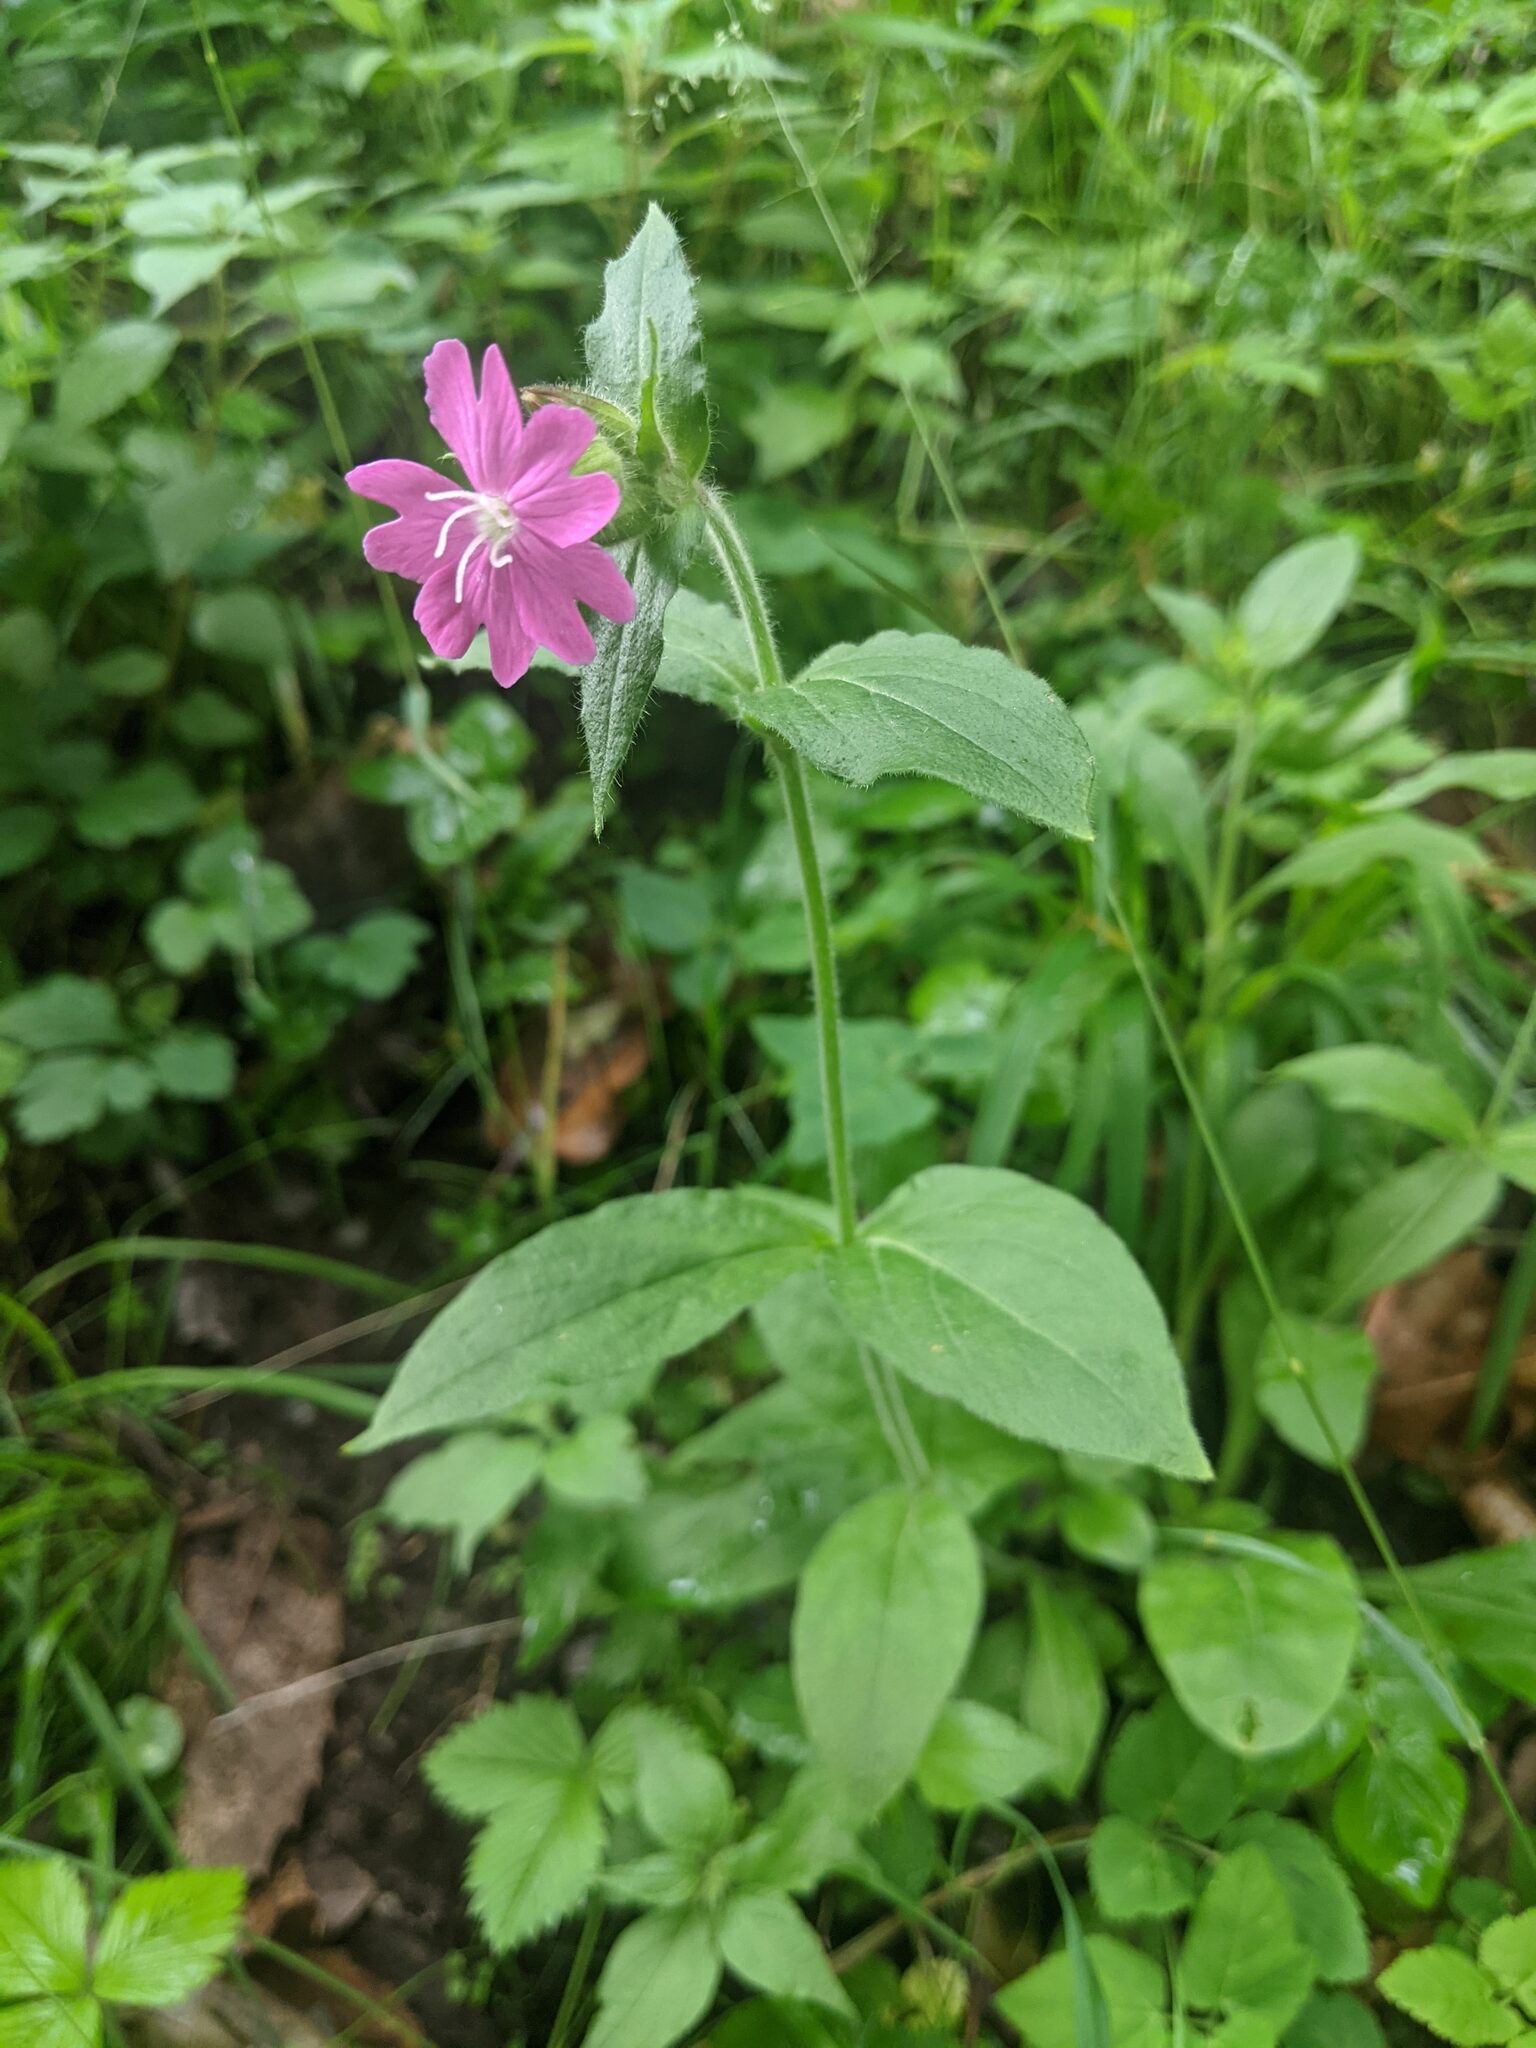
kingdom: Plantae
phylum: Tracheophyta
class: Magnoliopsida
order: Caryophyllales
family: Caryophyllaceae
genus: Silene
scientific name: Silene dioica
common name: Red campion
